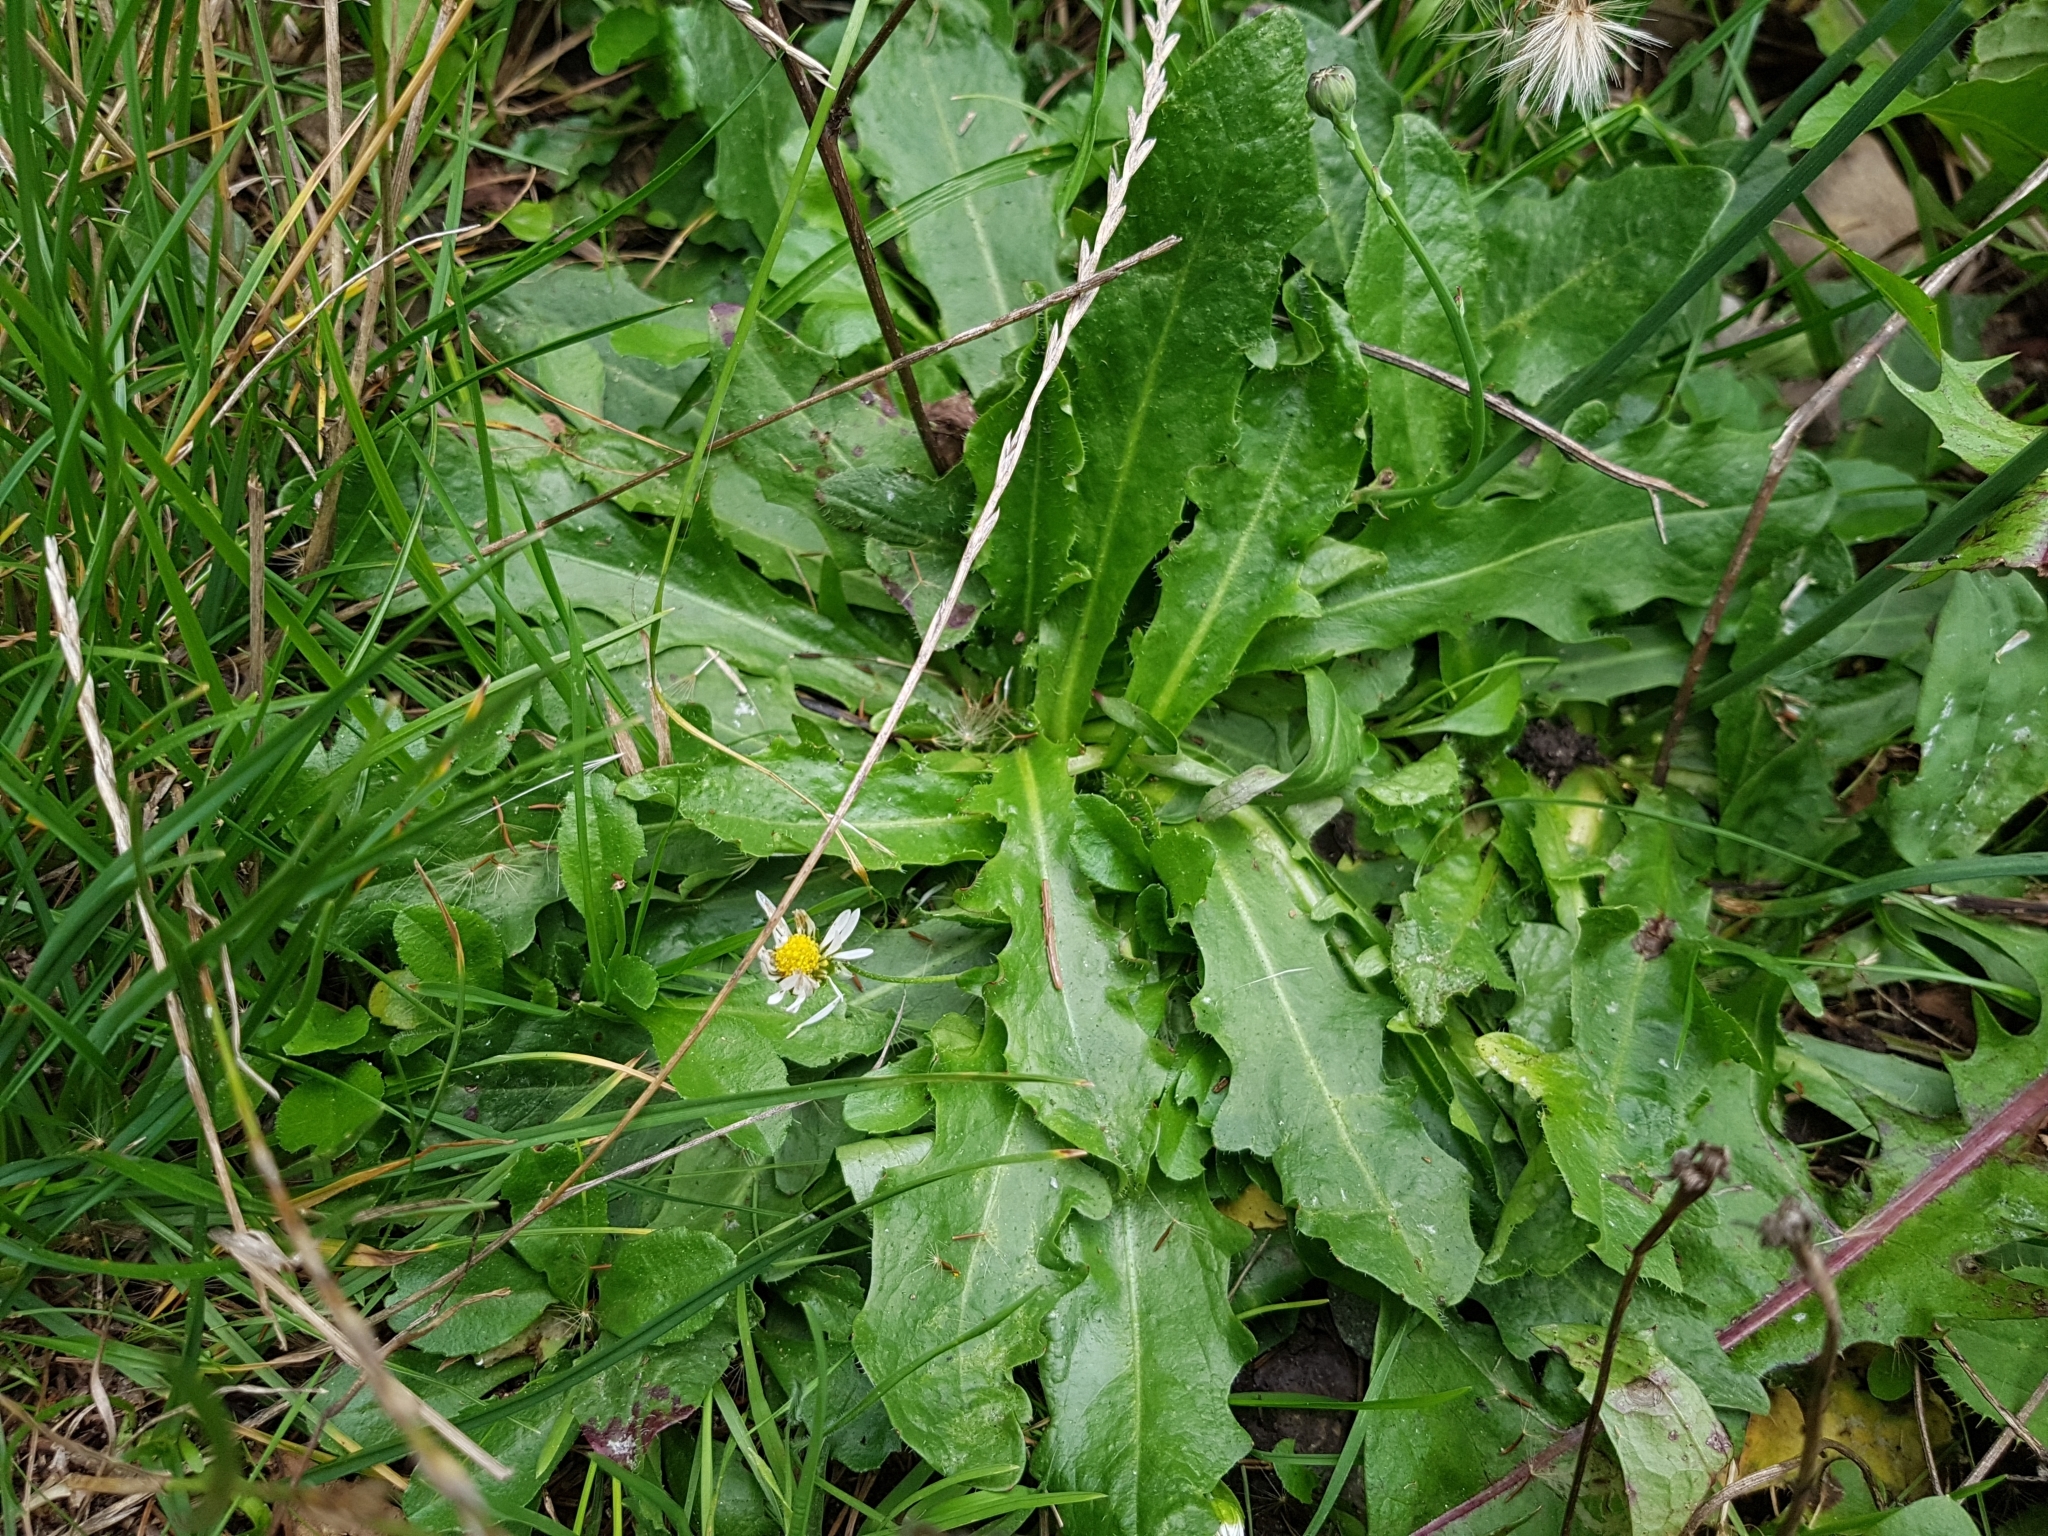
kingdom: Plantae
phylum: Tracheophyta
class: Magnoliopsida
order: Asterales
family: Asteraceae
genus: Hypochaeris
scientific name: Hypochaeris radicata
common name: Flatweed
